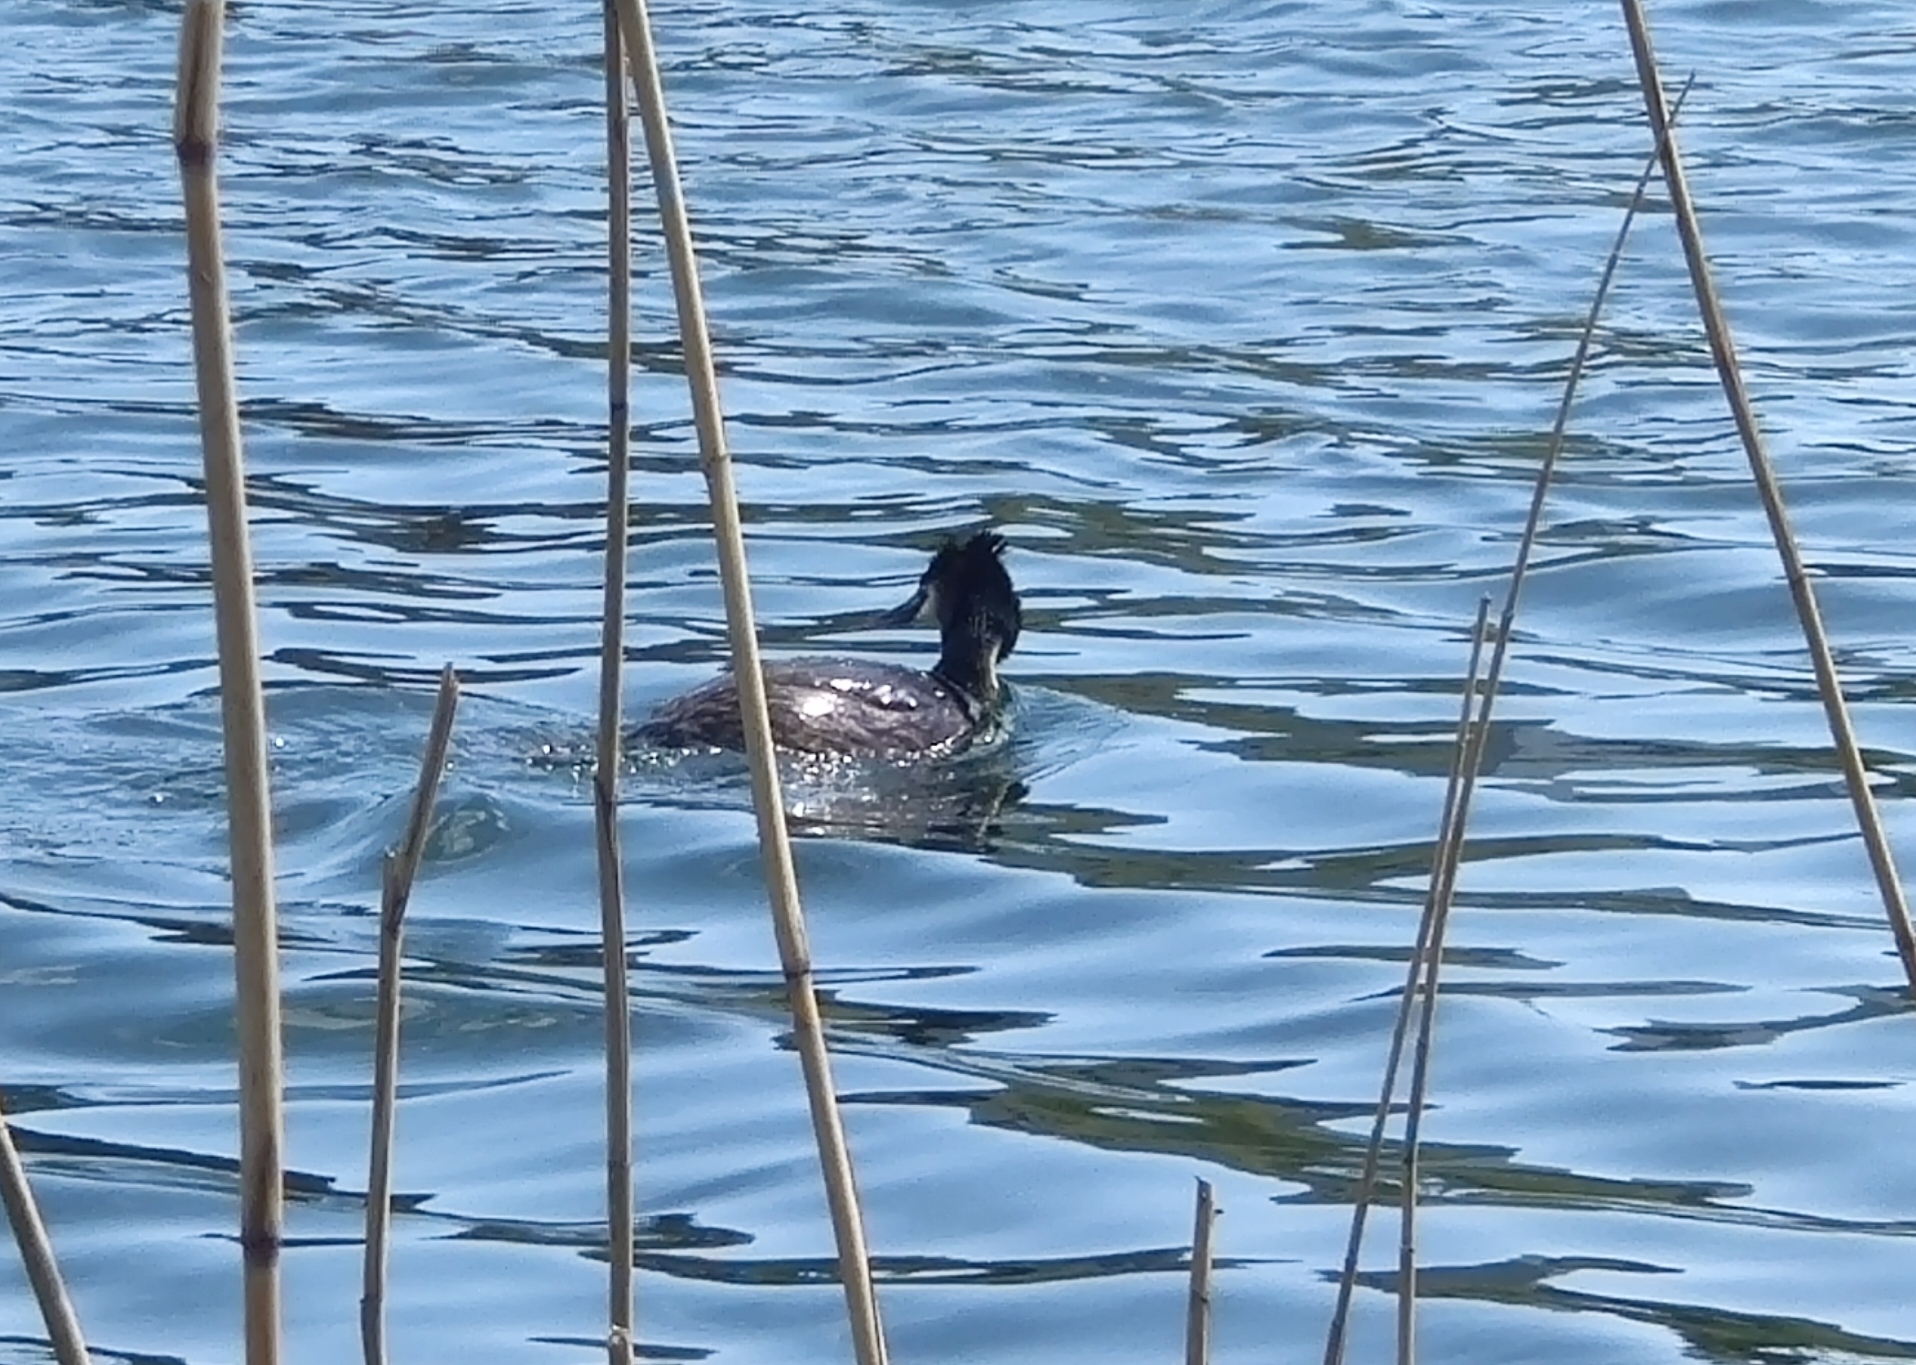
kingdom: Animalia
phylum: Chordata
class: Aves
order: Podicipediformes
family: Podicipedidae
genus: Podiceps
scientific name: Podiceps cristatus
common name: Great crested grebe
